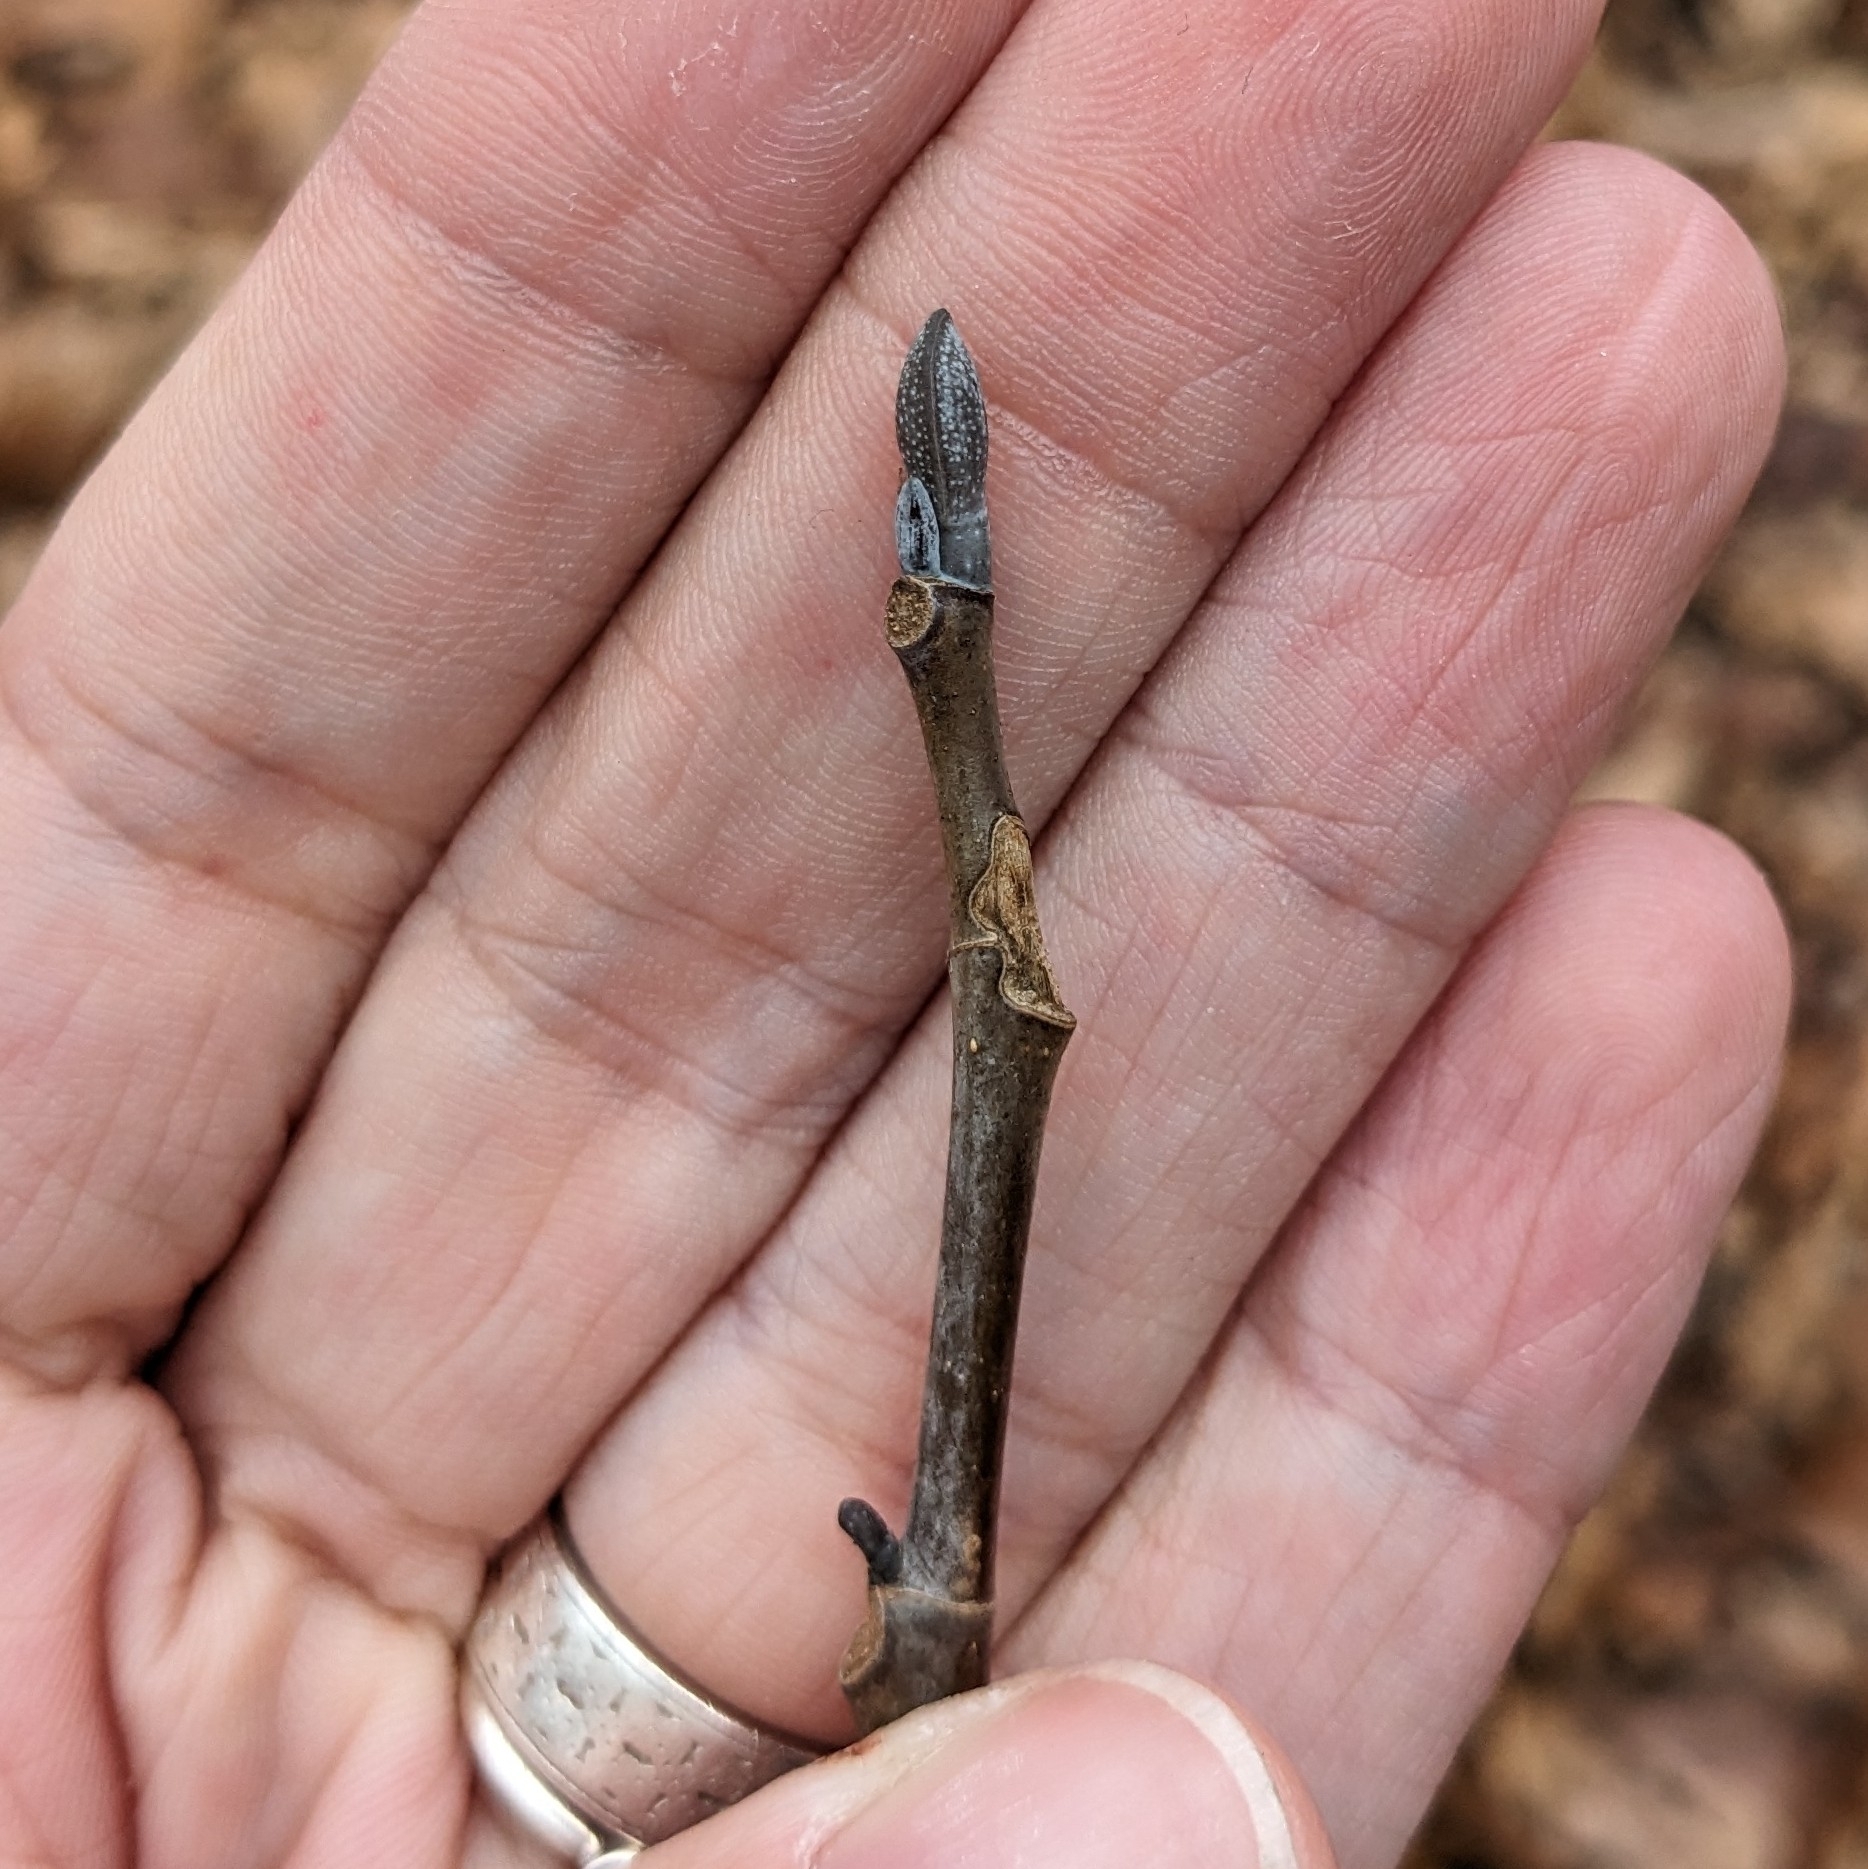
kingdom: Plantae
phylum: Tracheophyta
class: Magnoliopsida
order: Magnoliales
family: Magnoliaceae
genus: Liriodendron
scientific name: Liriodendron tulipifera
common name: Tulip tree
